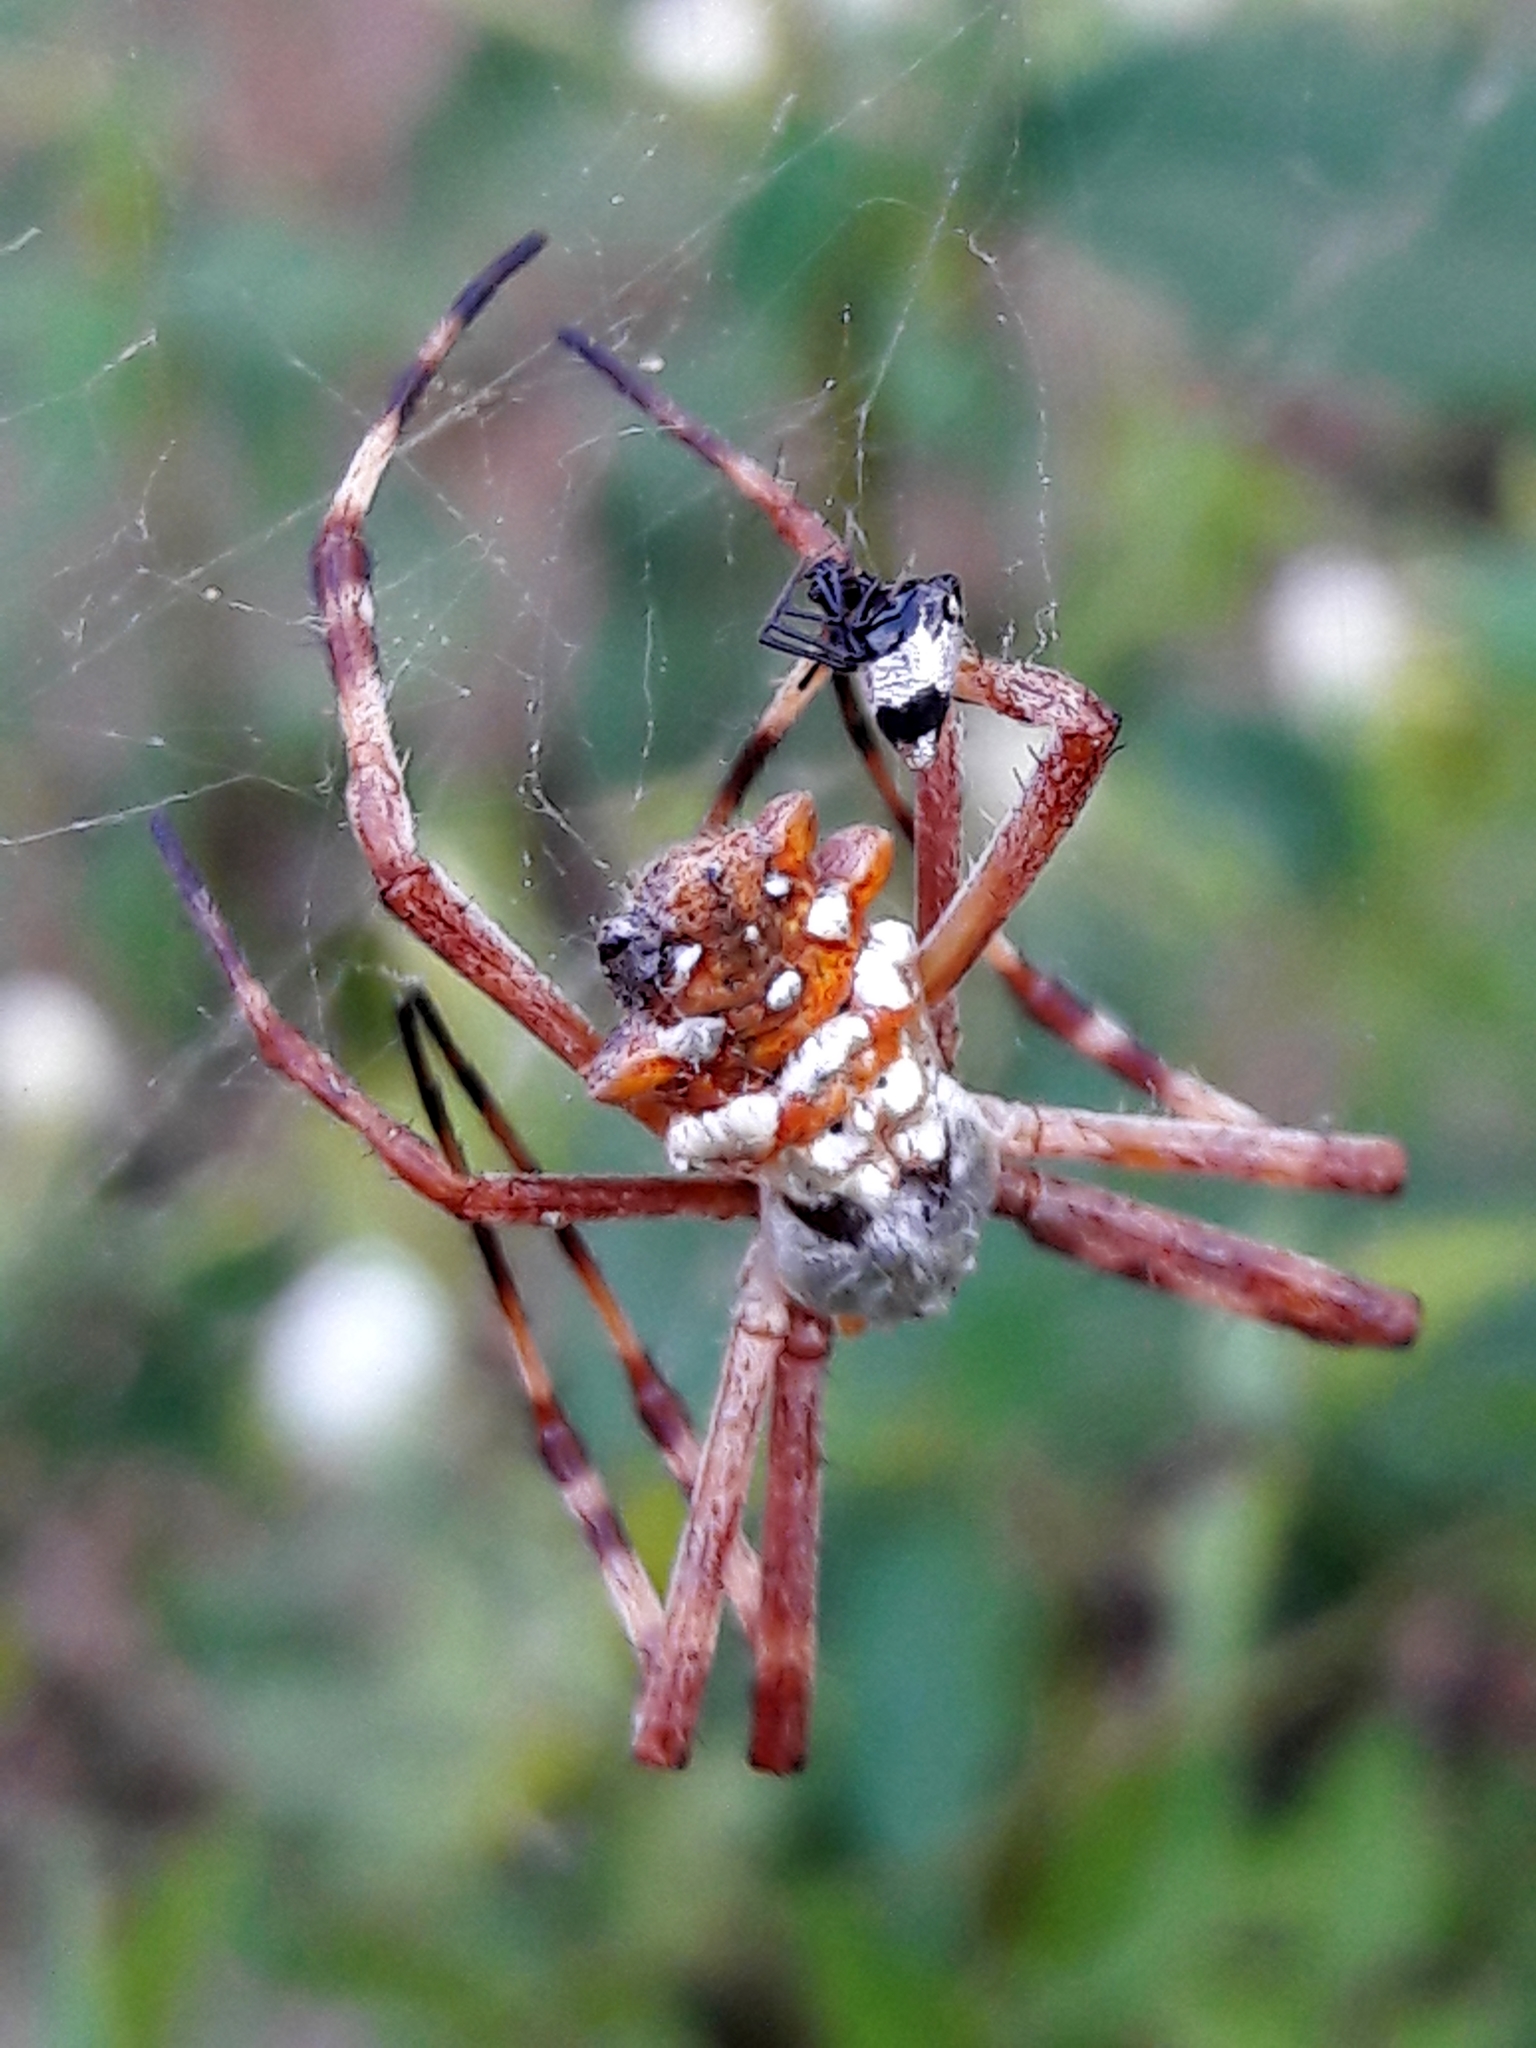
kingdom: Animalia
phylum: Arthropoda
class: Arachnida
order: Araneae
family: Araneidae
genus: Argiope
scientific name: Argiope argentata
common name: Orb weavers
